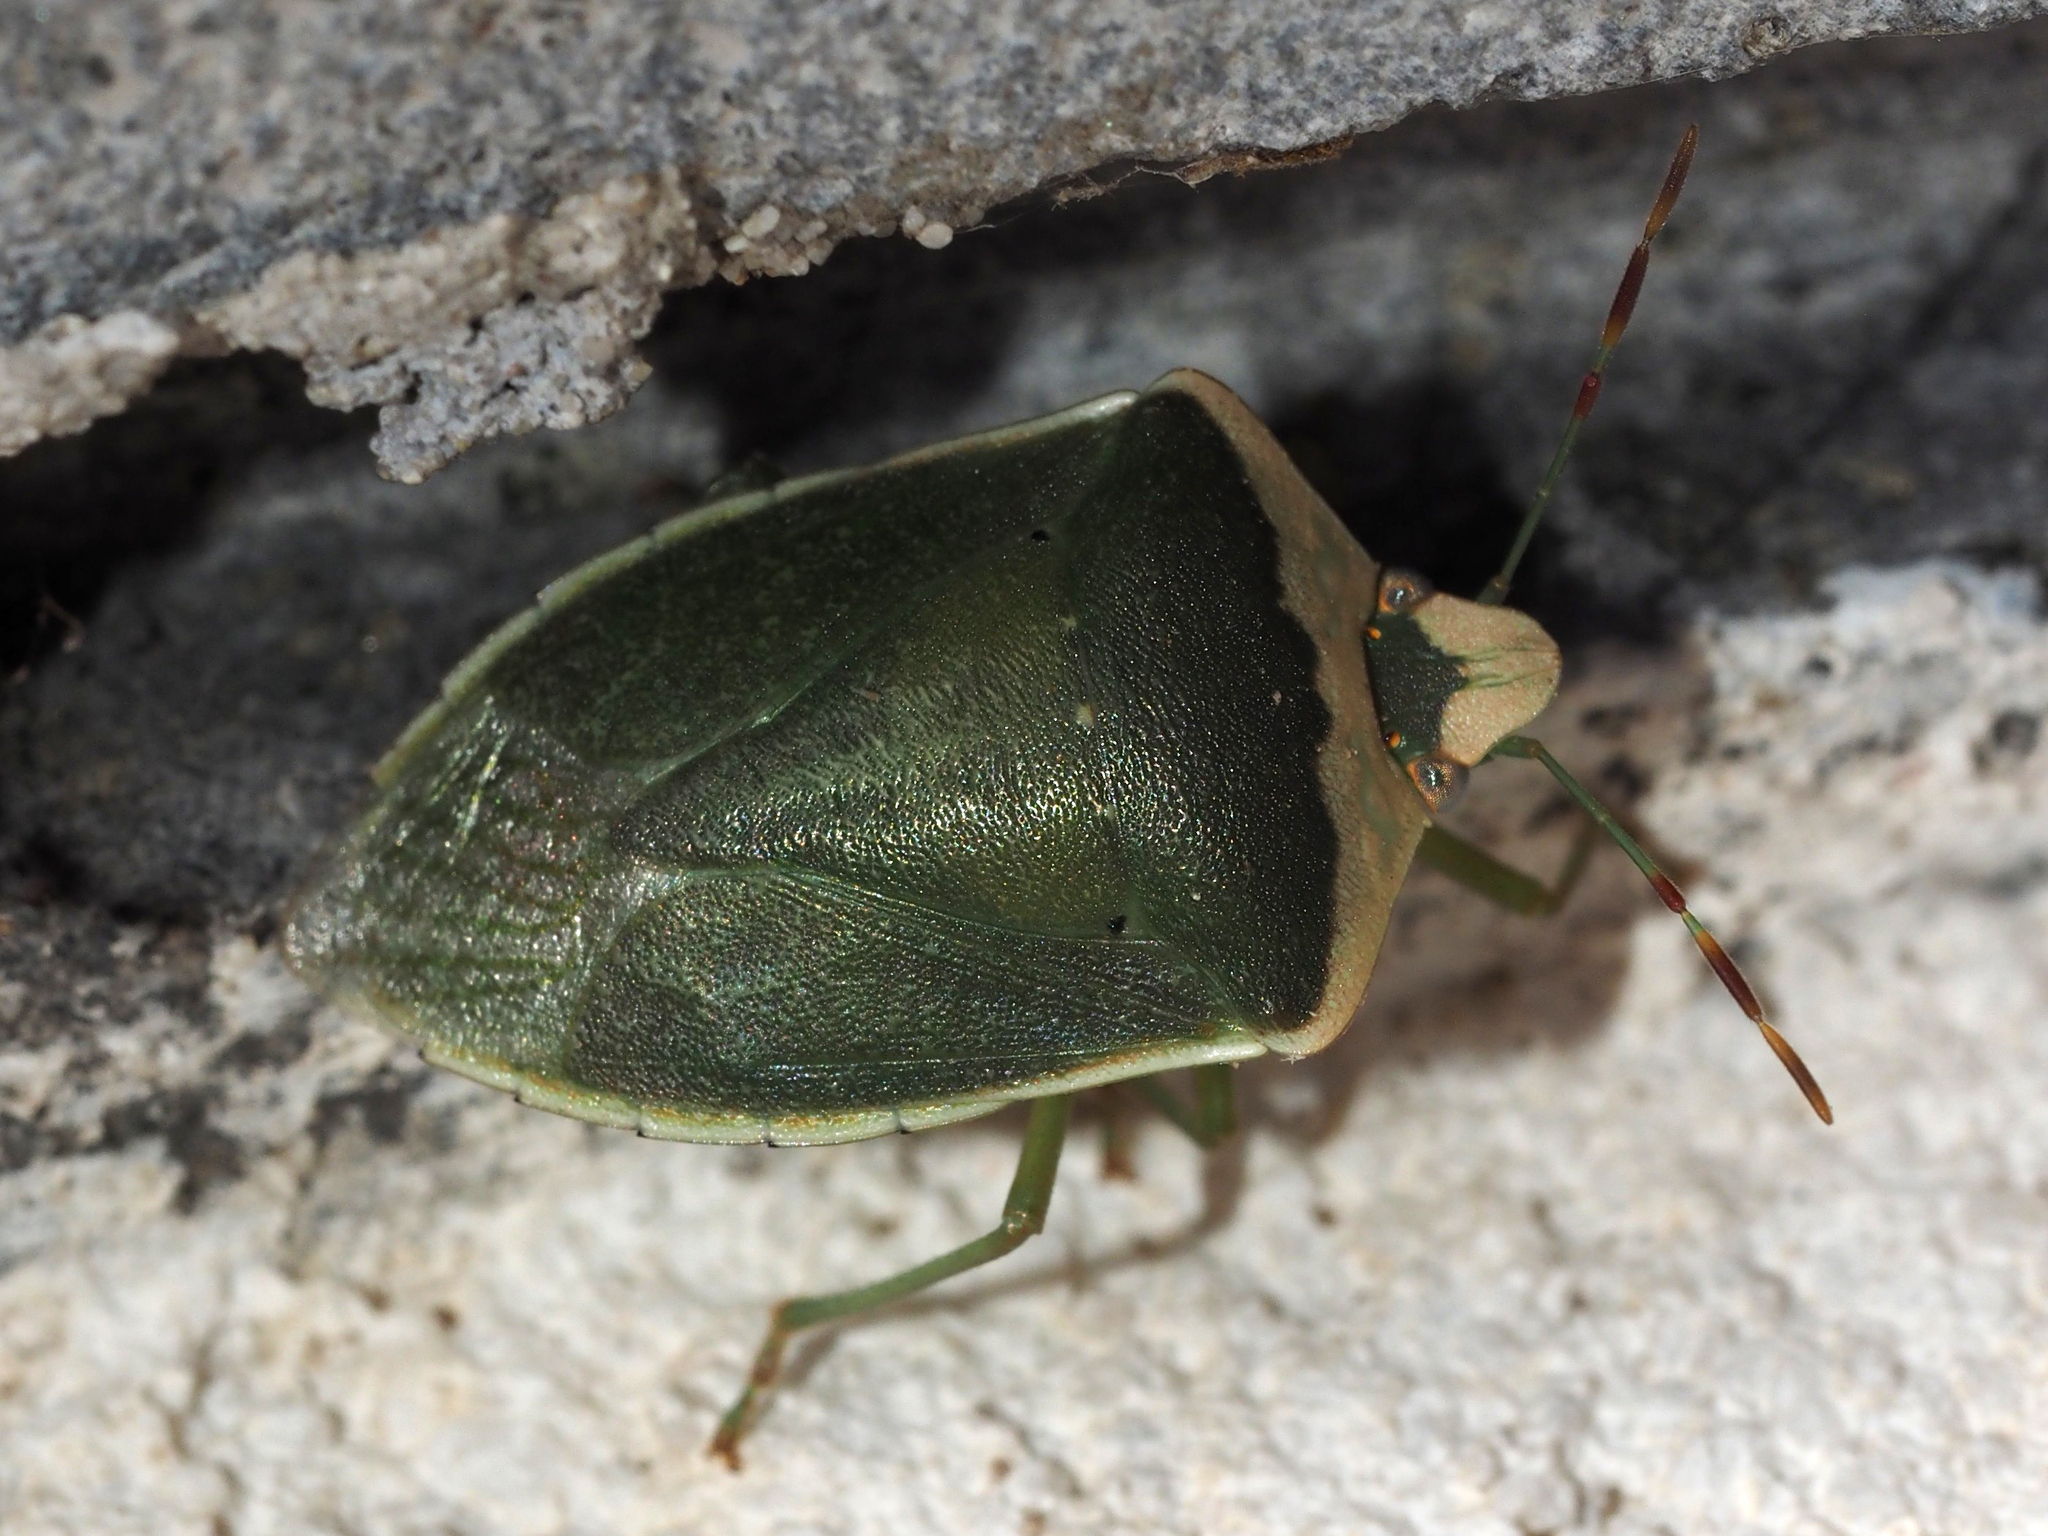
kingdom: Animalia
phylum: Arthropoda
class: Insecta
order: Hemiptera
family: Pentatomidae
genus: Nezara
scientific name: Nezara viridula
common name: Southern green stink bug
